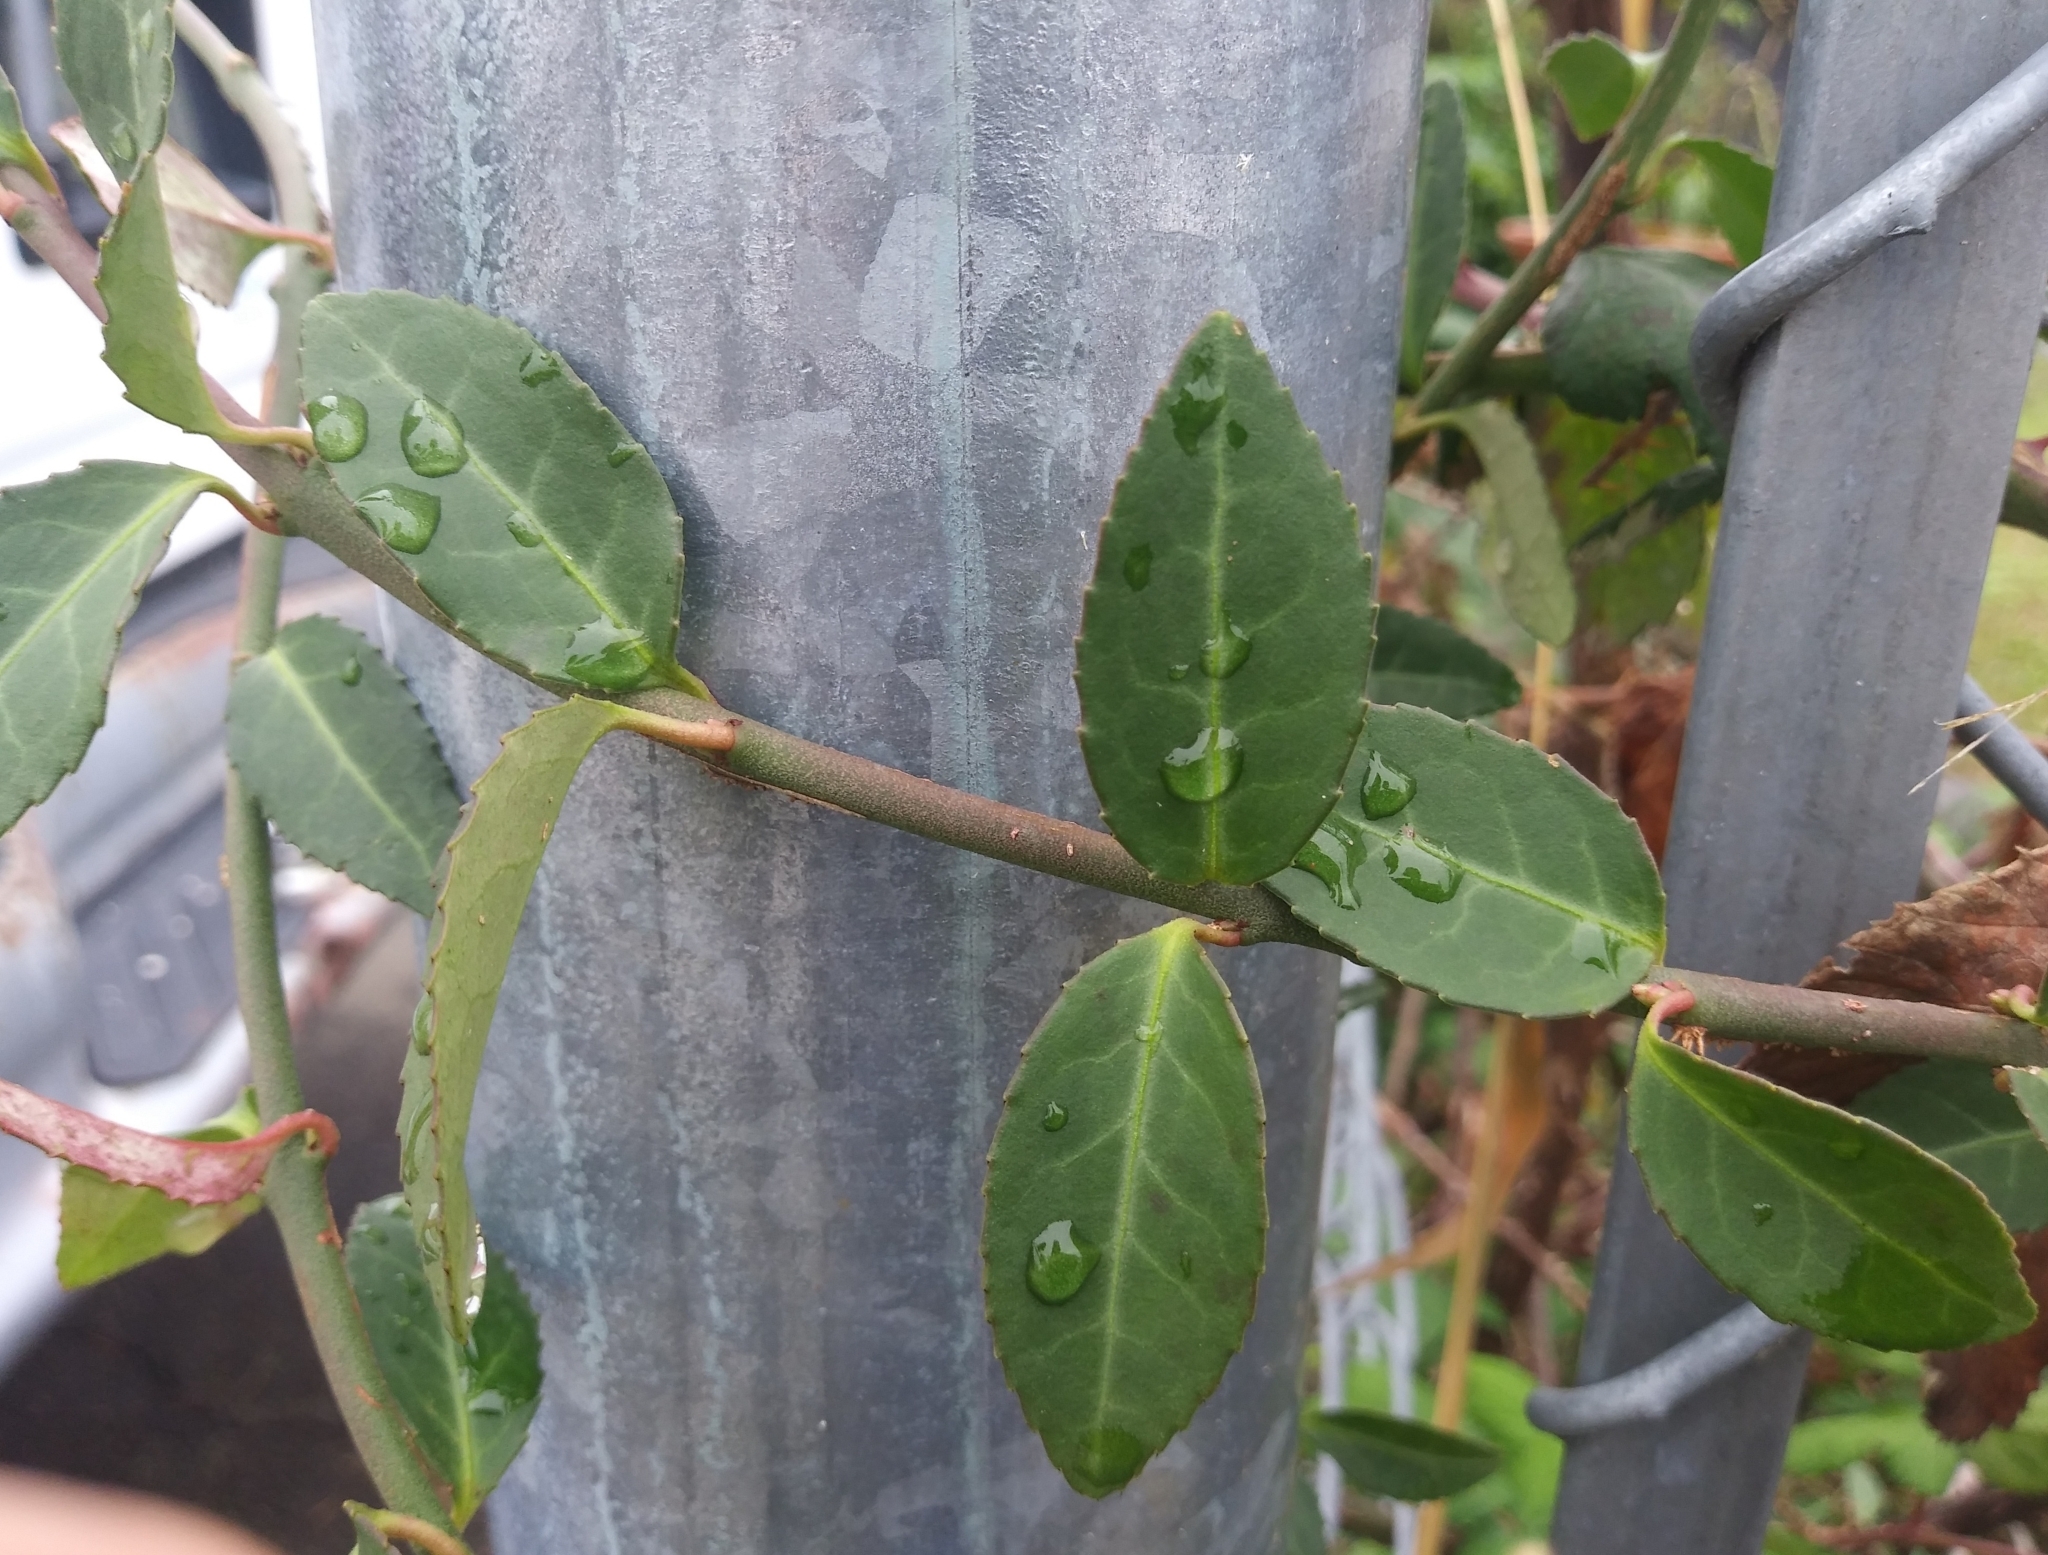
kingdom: Plantae
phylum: Tracheophyta
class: Magnoliopsida
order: Celastrales
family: Celastraceae
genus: Euonymus
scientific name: Euonymus fortunei
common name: Climbing euonymus
